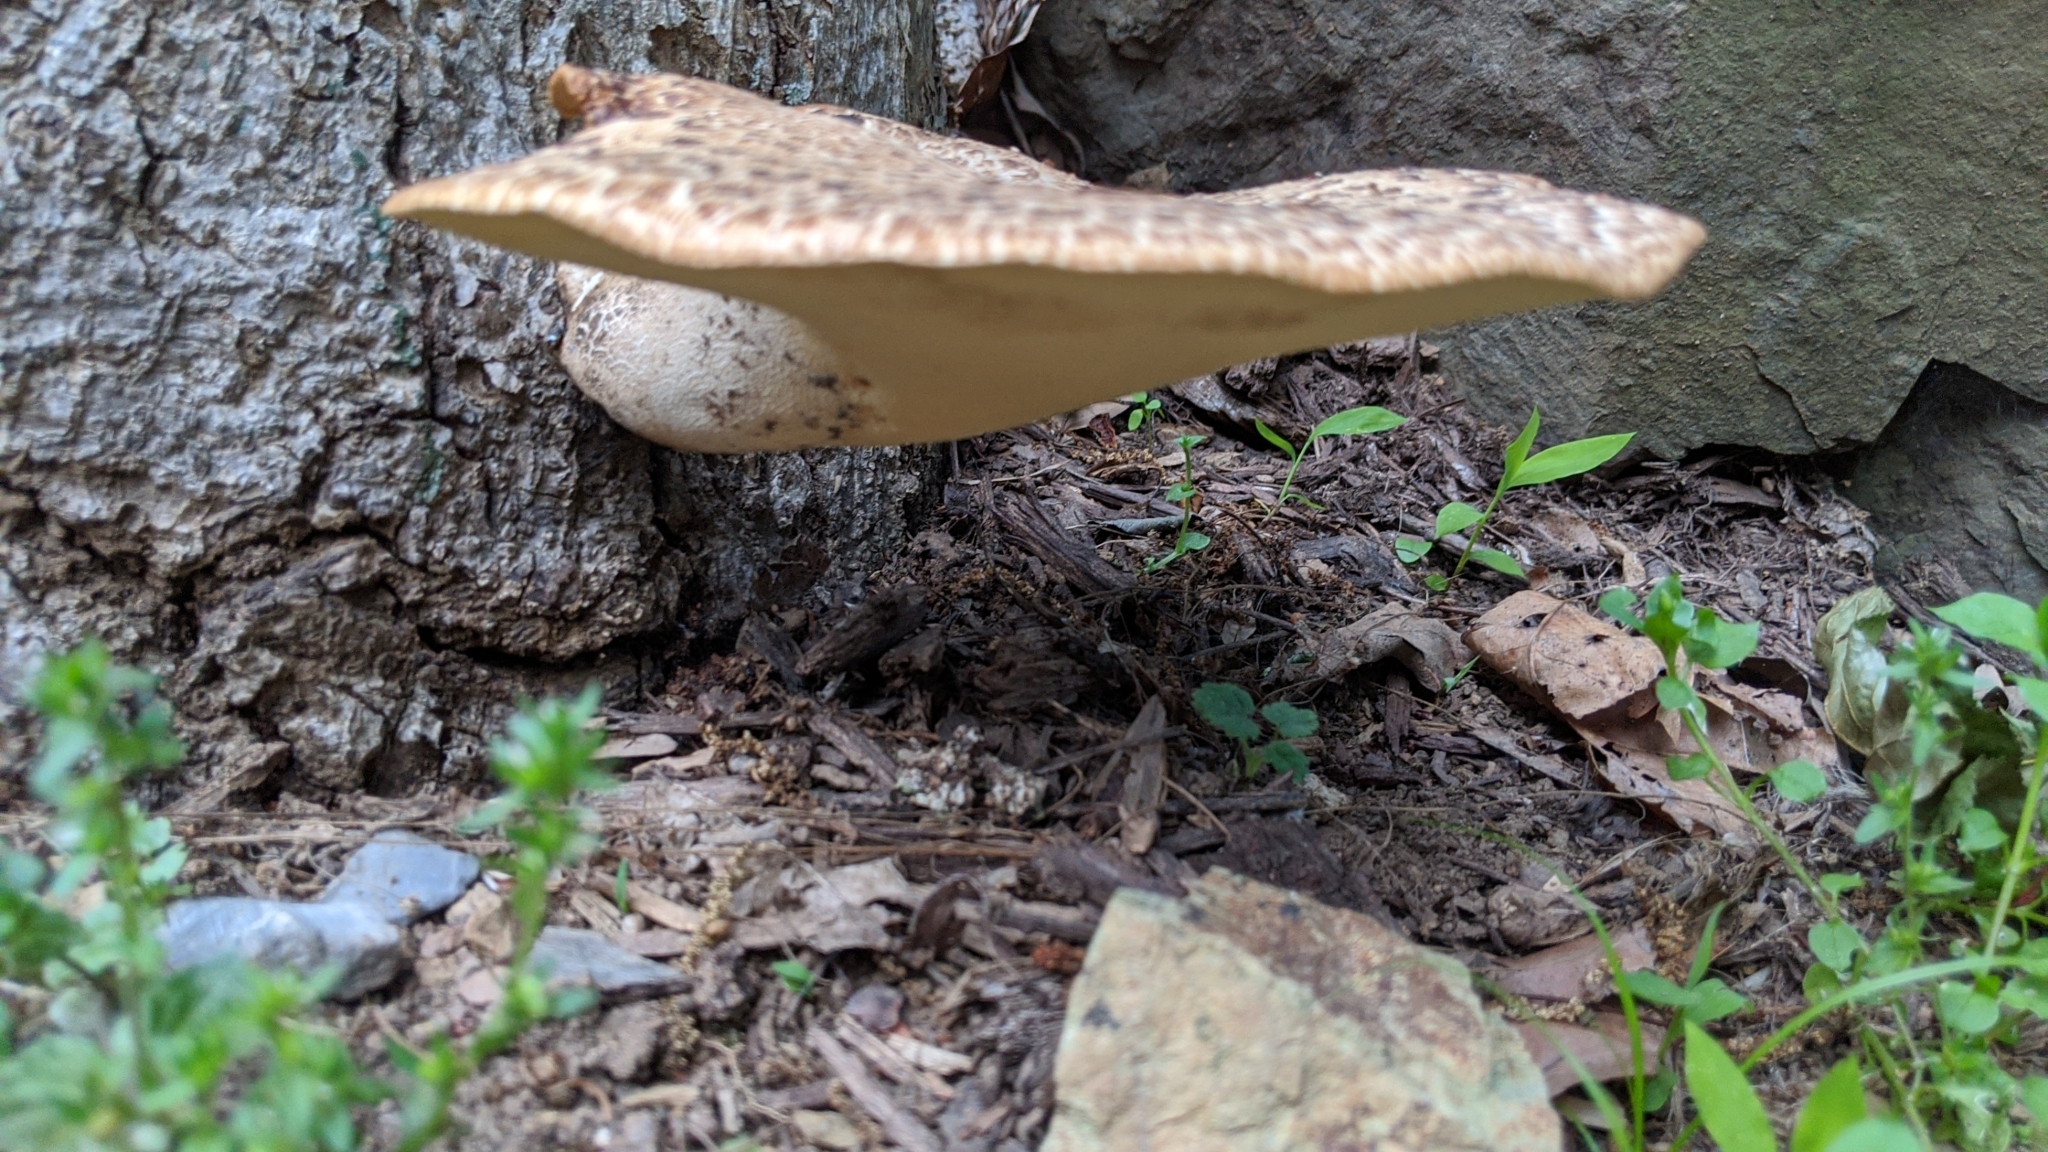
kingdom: Fungi
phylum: Basidiomycota
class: Agaricomycetes
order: Polyporales
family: Polyporaceae
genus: Cerioporus
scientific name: Cerioporus squamosus
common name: Dryad's saddle
